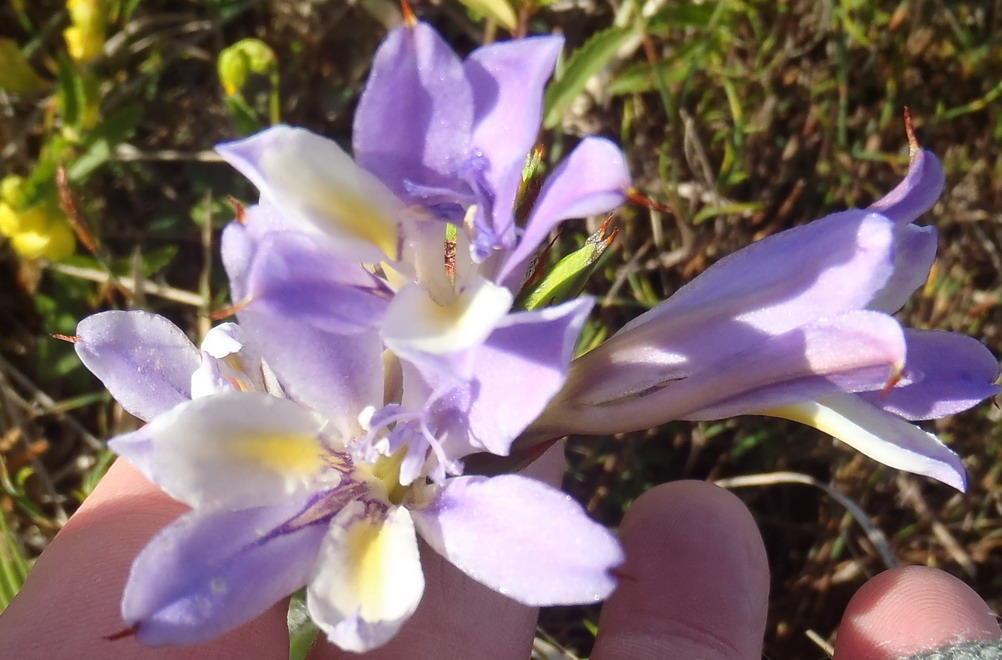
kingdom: Plantae
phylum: Tracheophyta
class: Liliopsida
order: Asparagales
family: Iridaceae
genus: Babiana
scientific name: Babiana fourcadei
